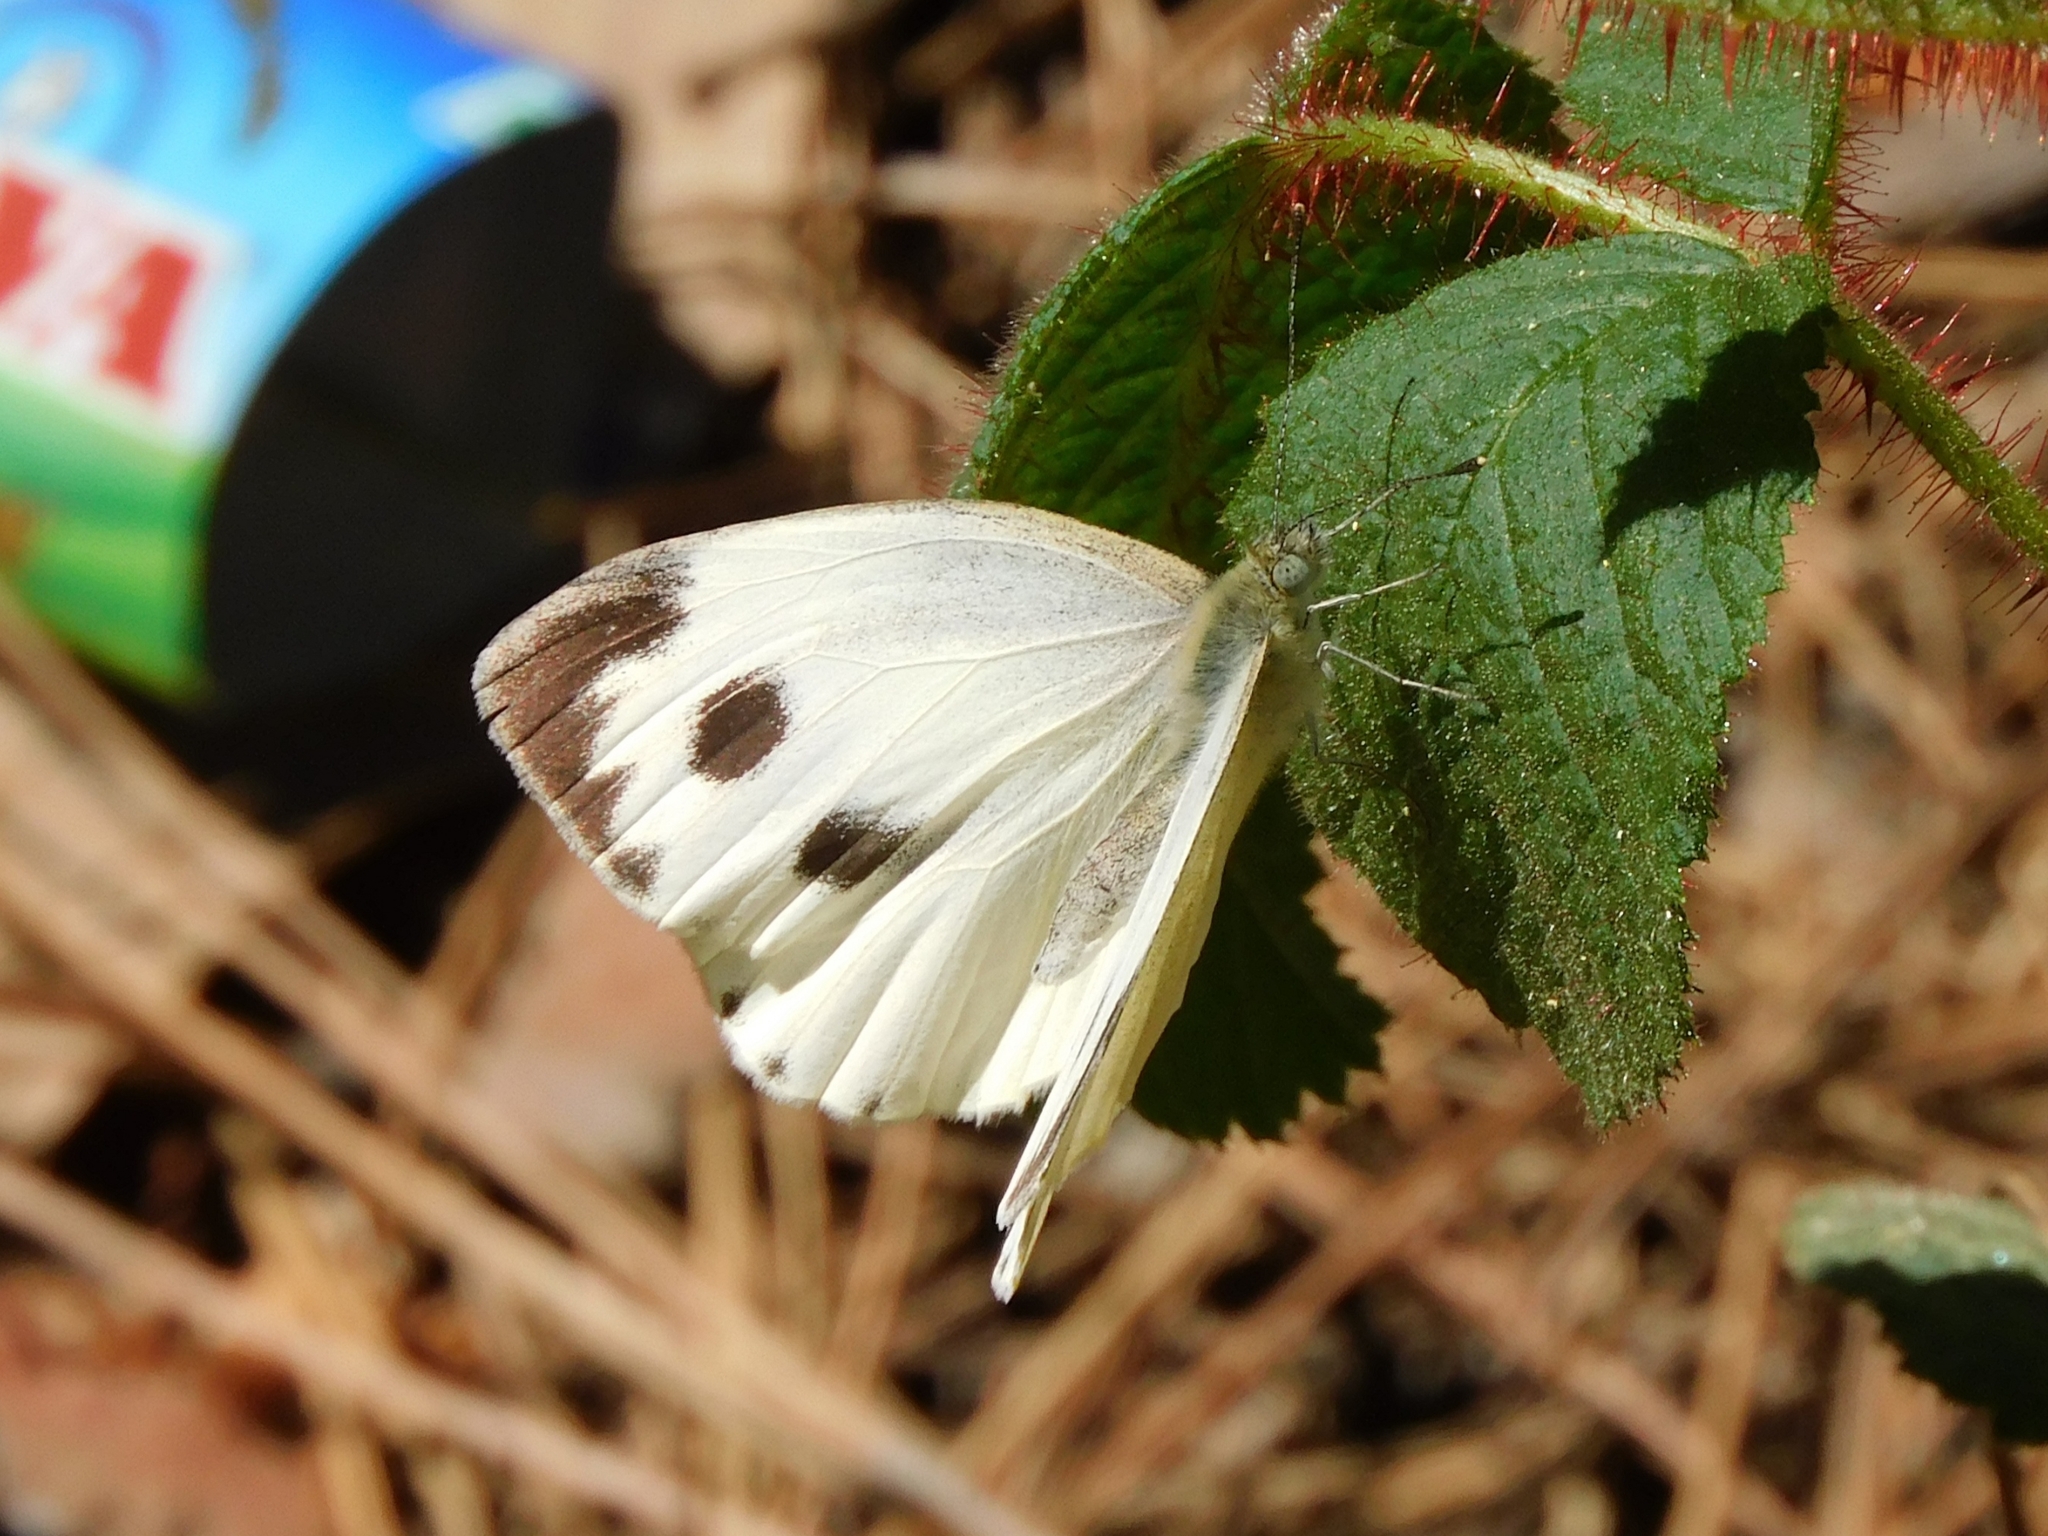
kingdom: Animalia
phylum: Arthropoda
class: Insecta
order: Lepidoptera
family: Pieridae
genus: Pieris
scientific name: Pieris canidia
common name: Indian cabbage white
